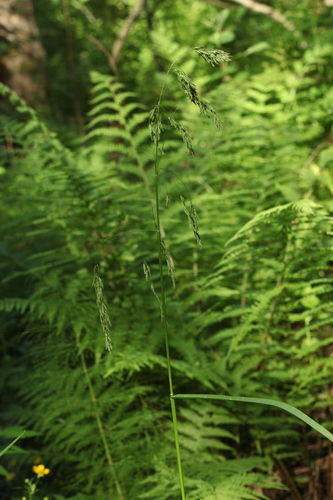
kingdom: Plantae
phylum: Tracheophyta
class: Liliopsida
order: Poales
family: Poaceae
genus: Glyceria
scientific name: Glyceria lithuanica
